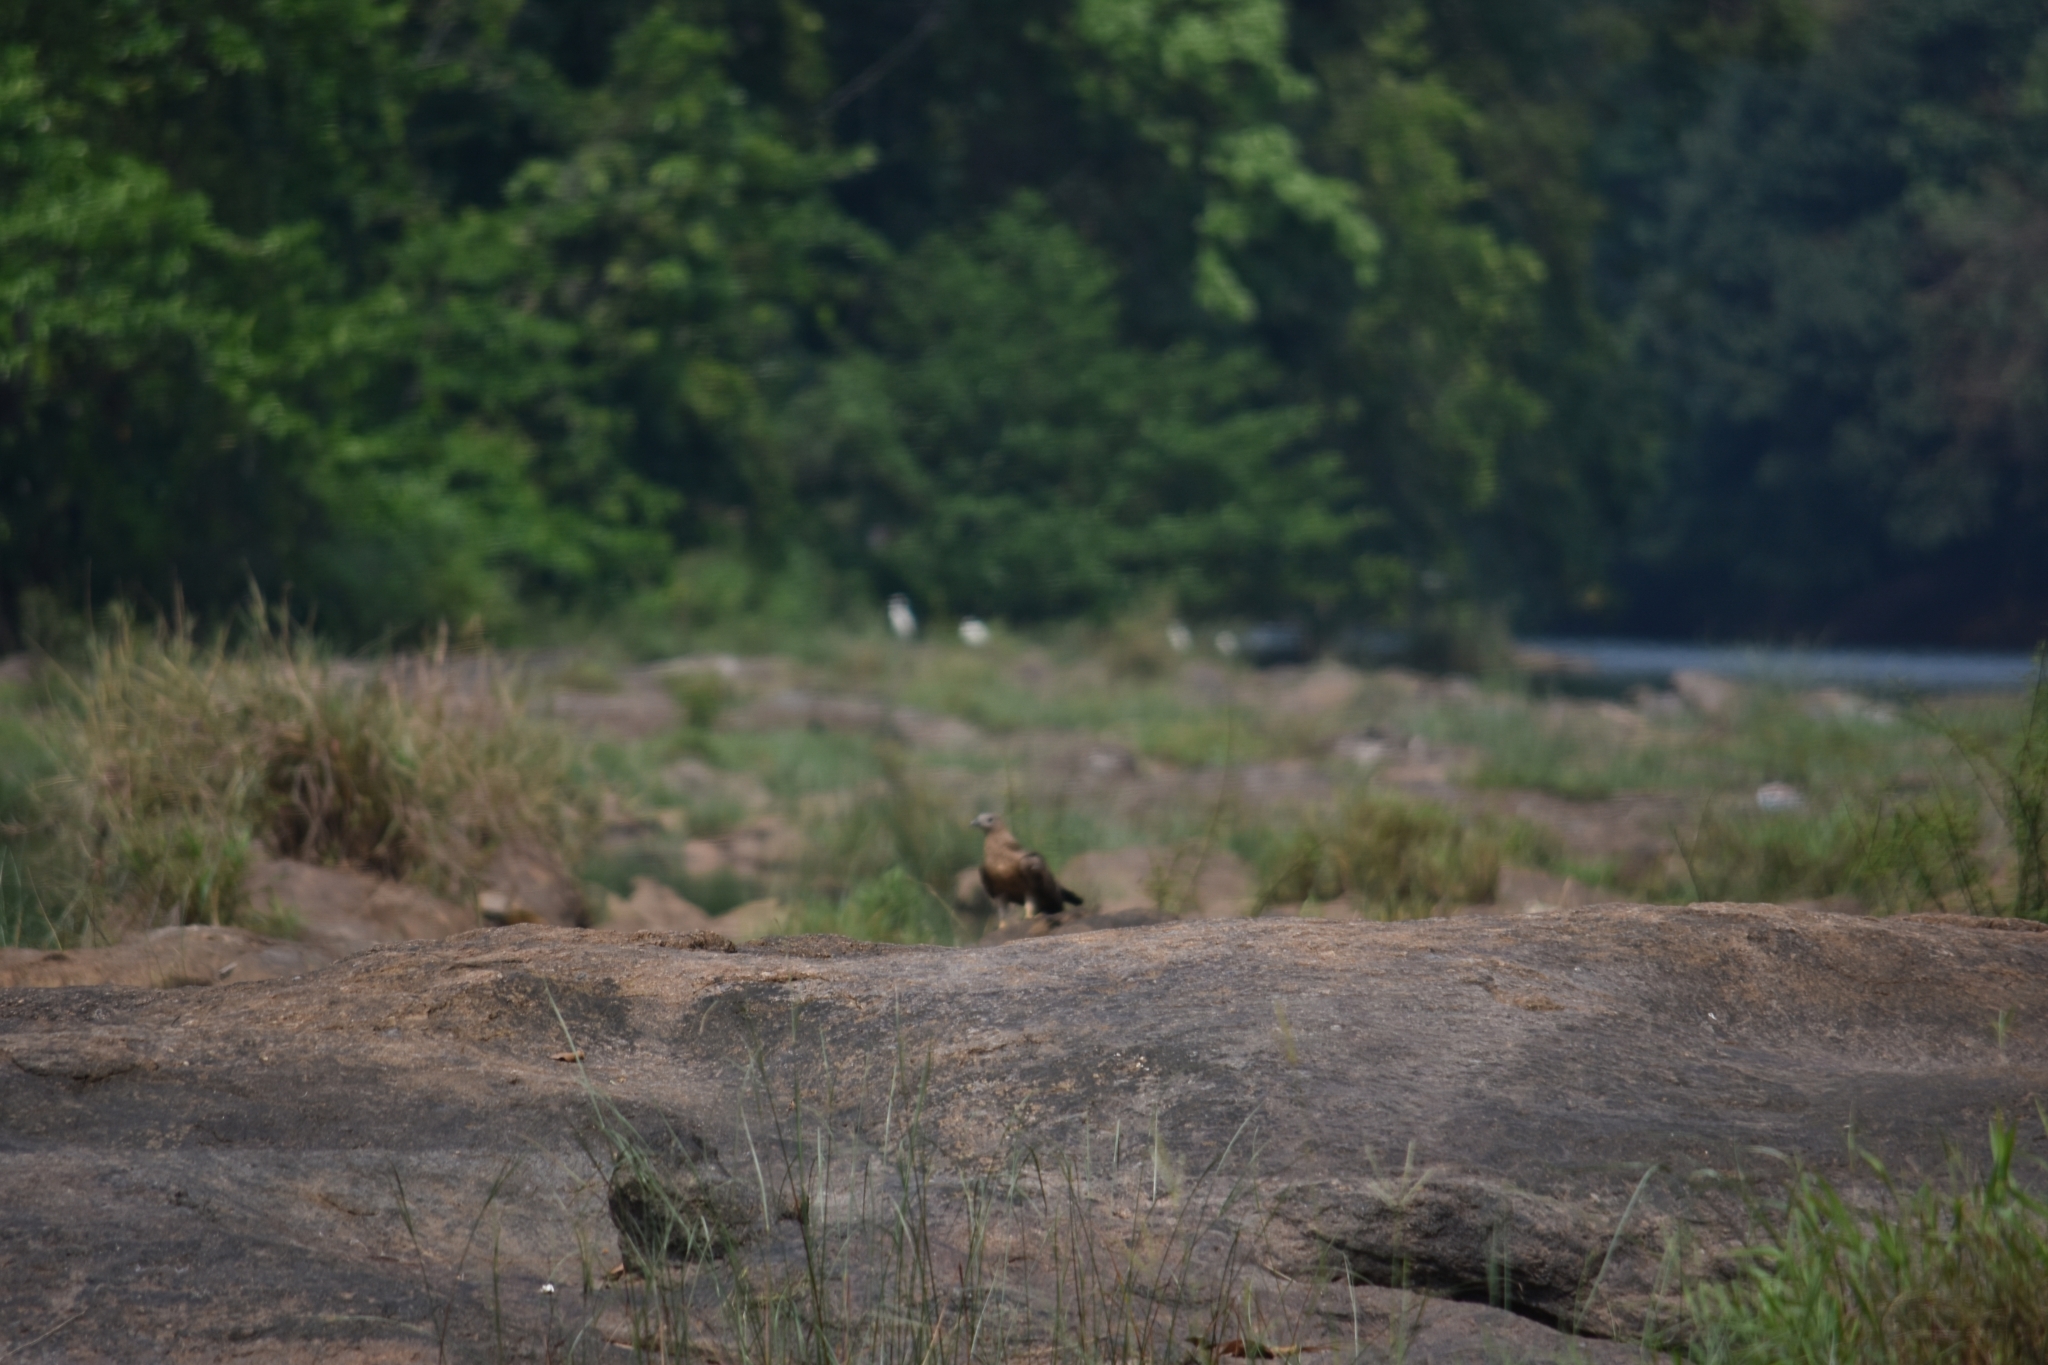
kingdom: Animalia
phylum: Chordata
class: Aves
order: Accipitriformes
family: Accipitridae
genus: Pernis
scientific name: Pernis ptilorhynchus
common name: Crested honey buzzard
